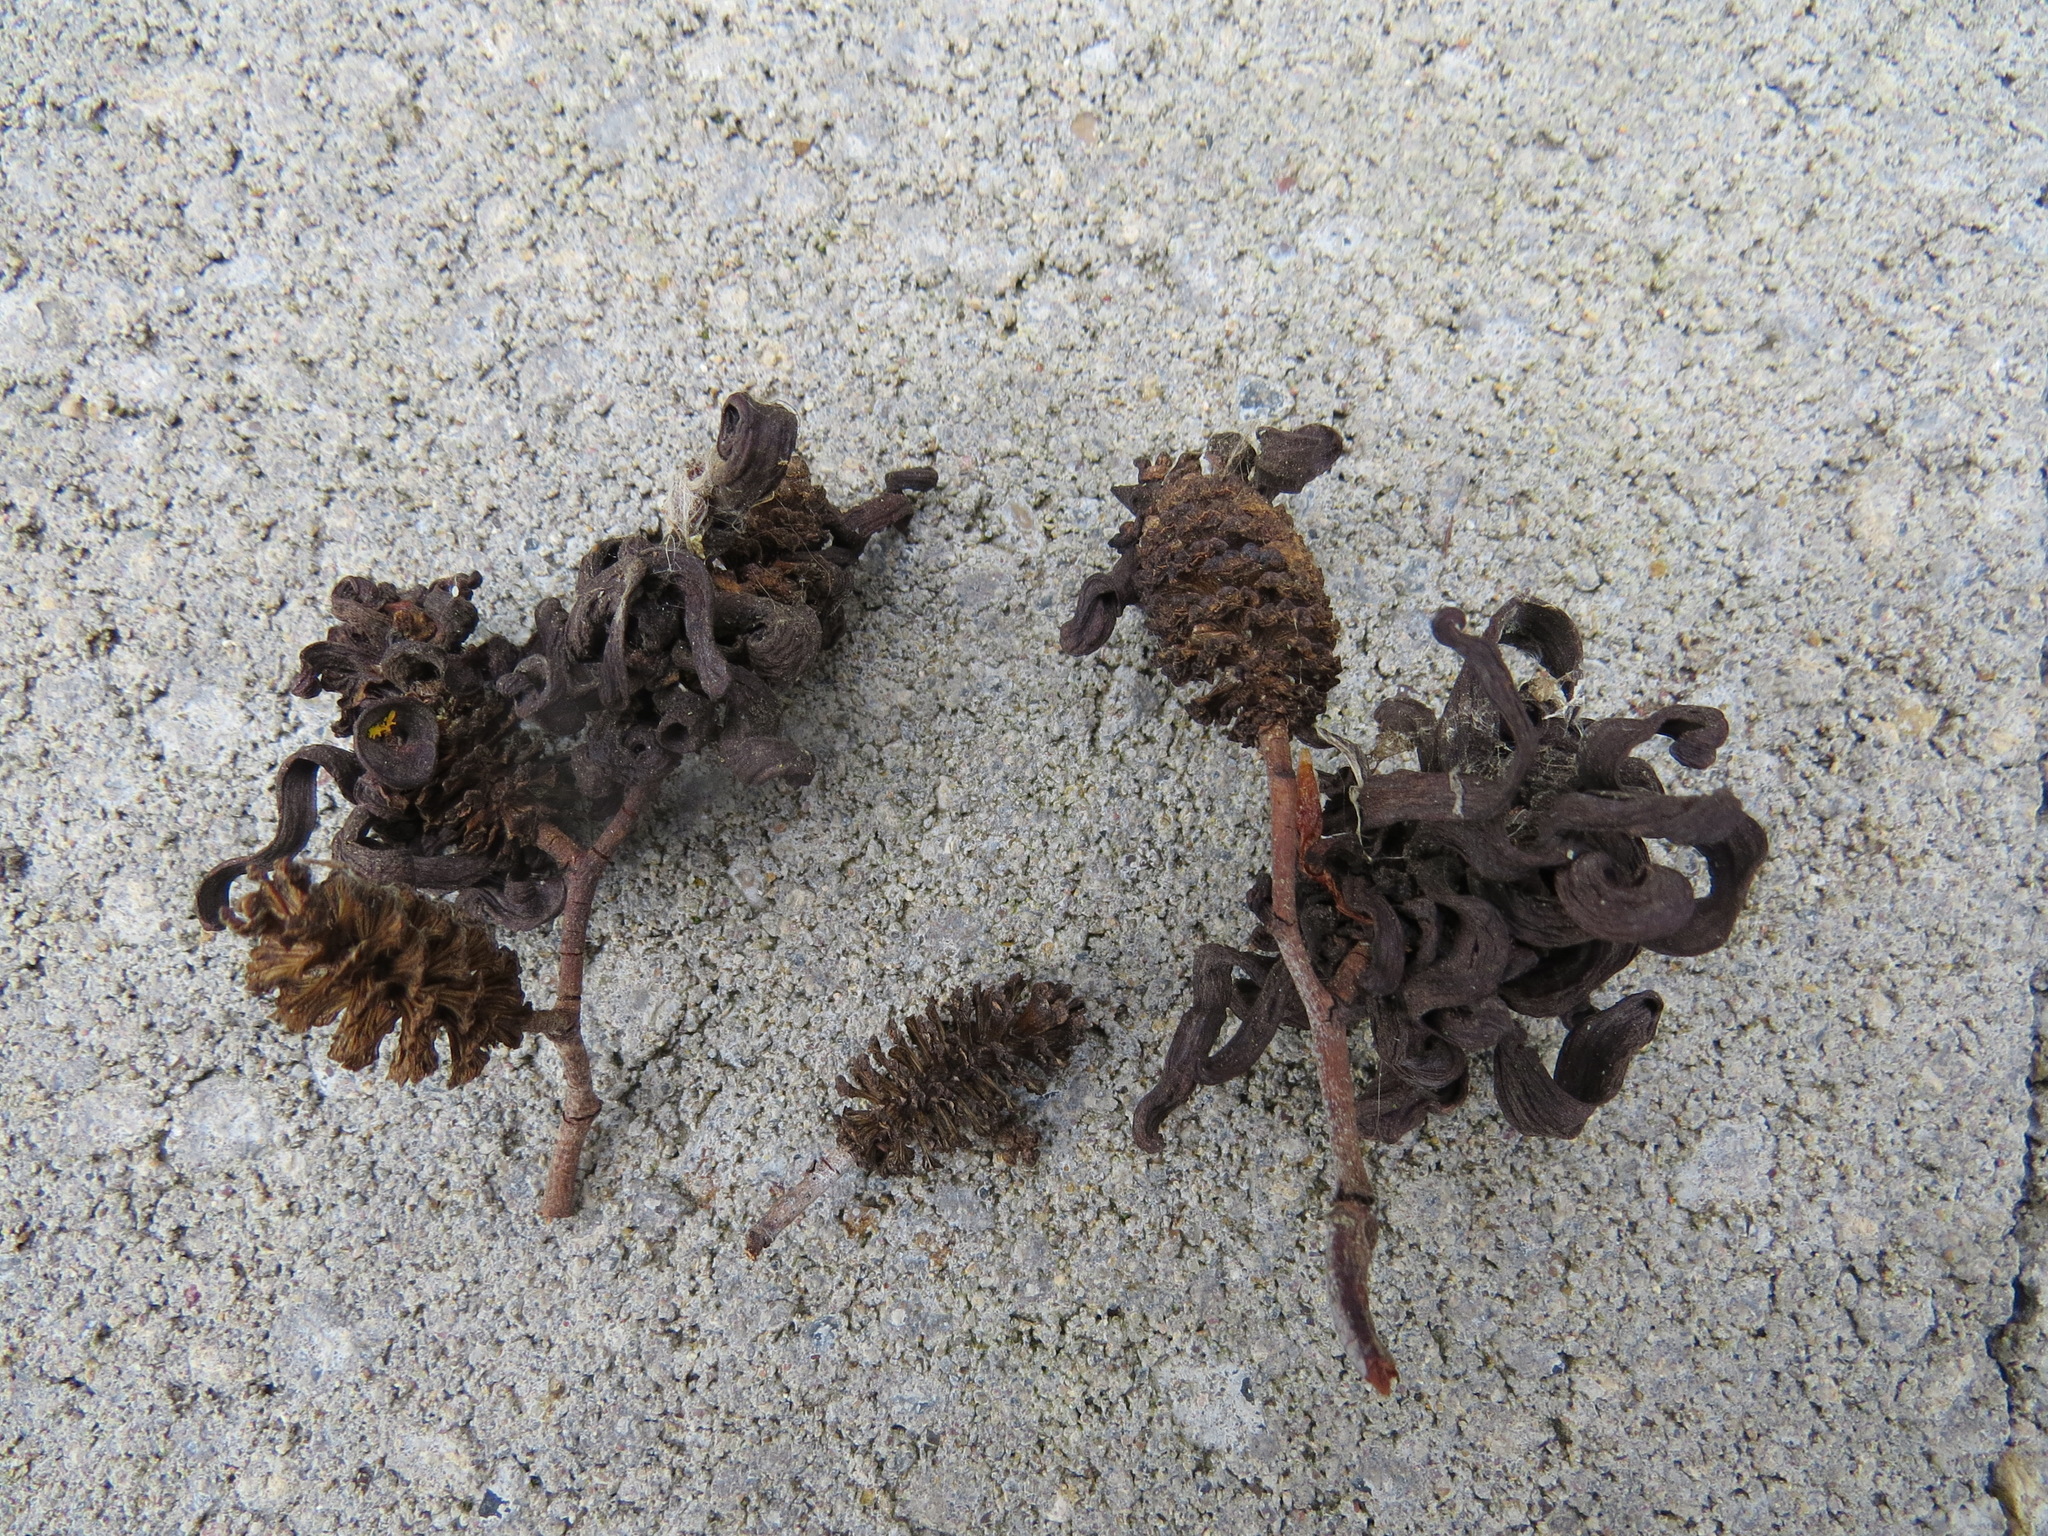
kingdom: Fungi
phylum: Ascomycota
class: Taphrinomycetes
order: Taphrinales
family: Taphrinaceae
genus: Taphrina
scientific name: Taphrina occidentalis
